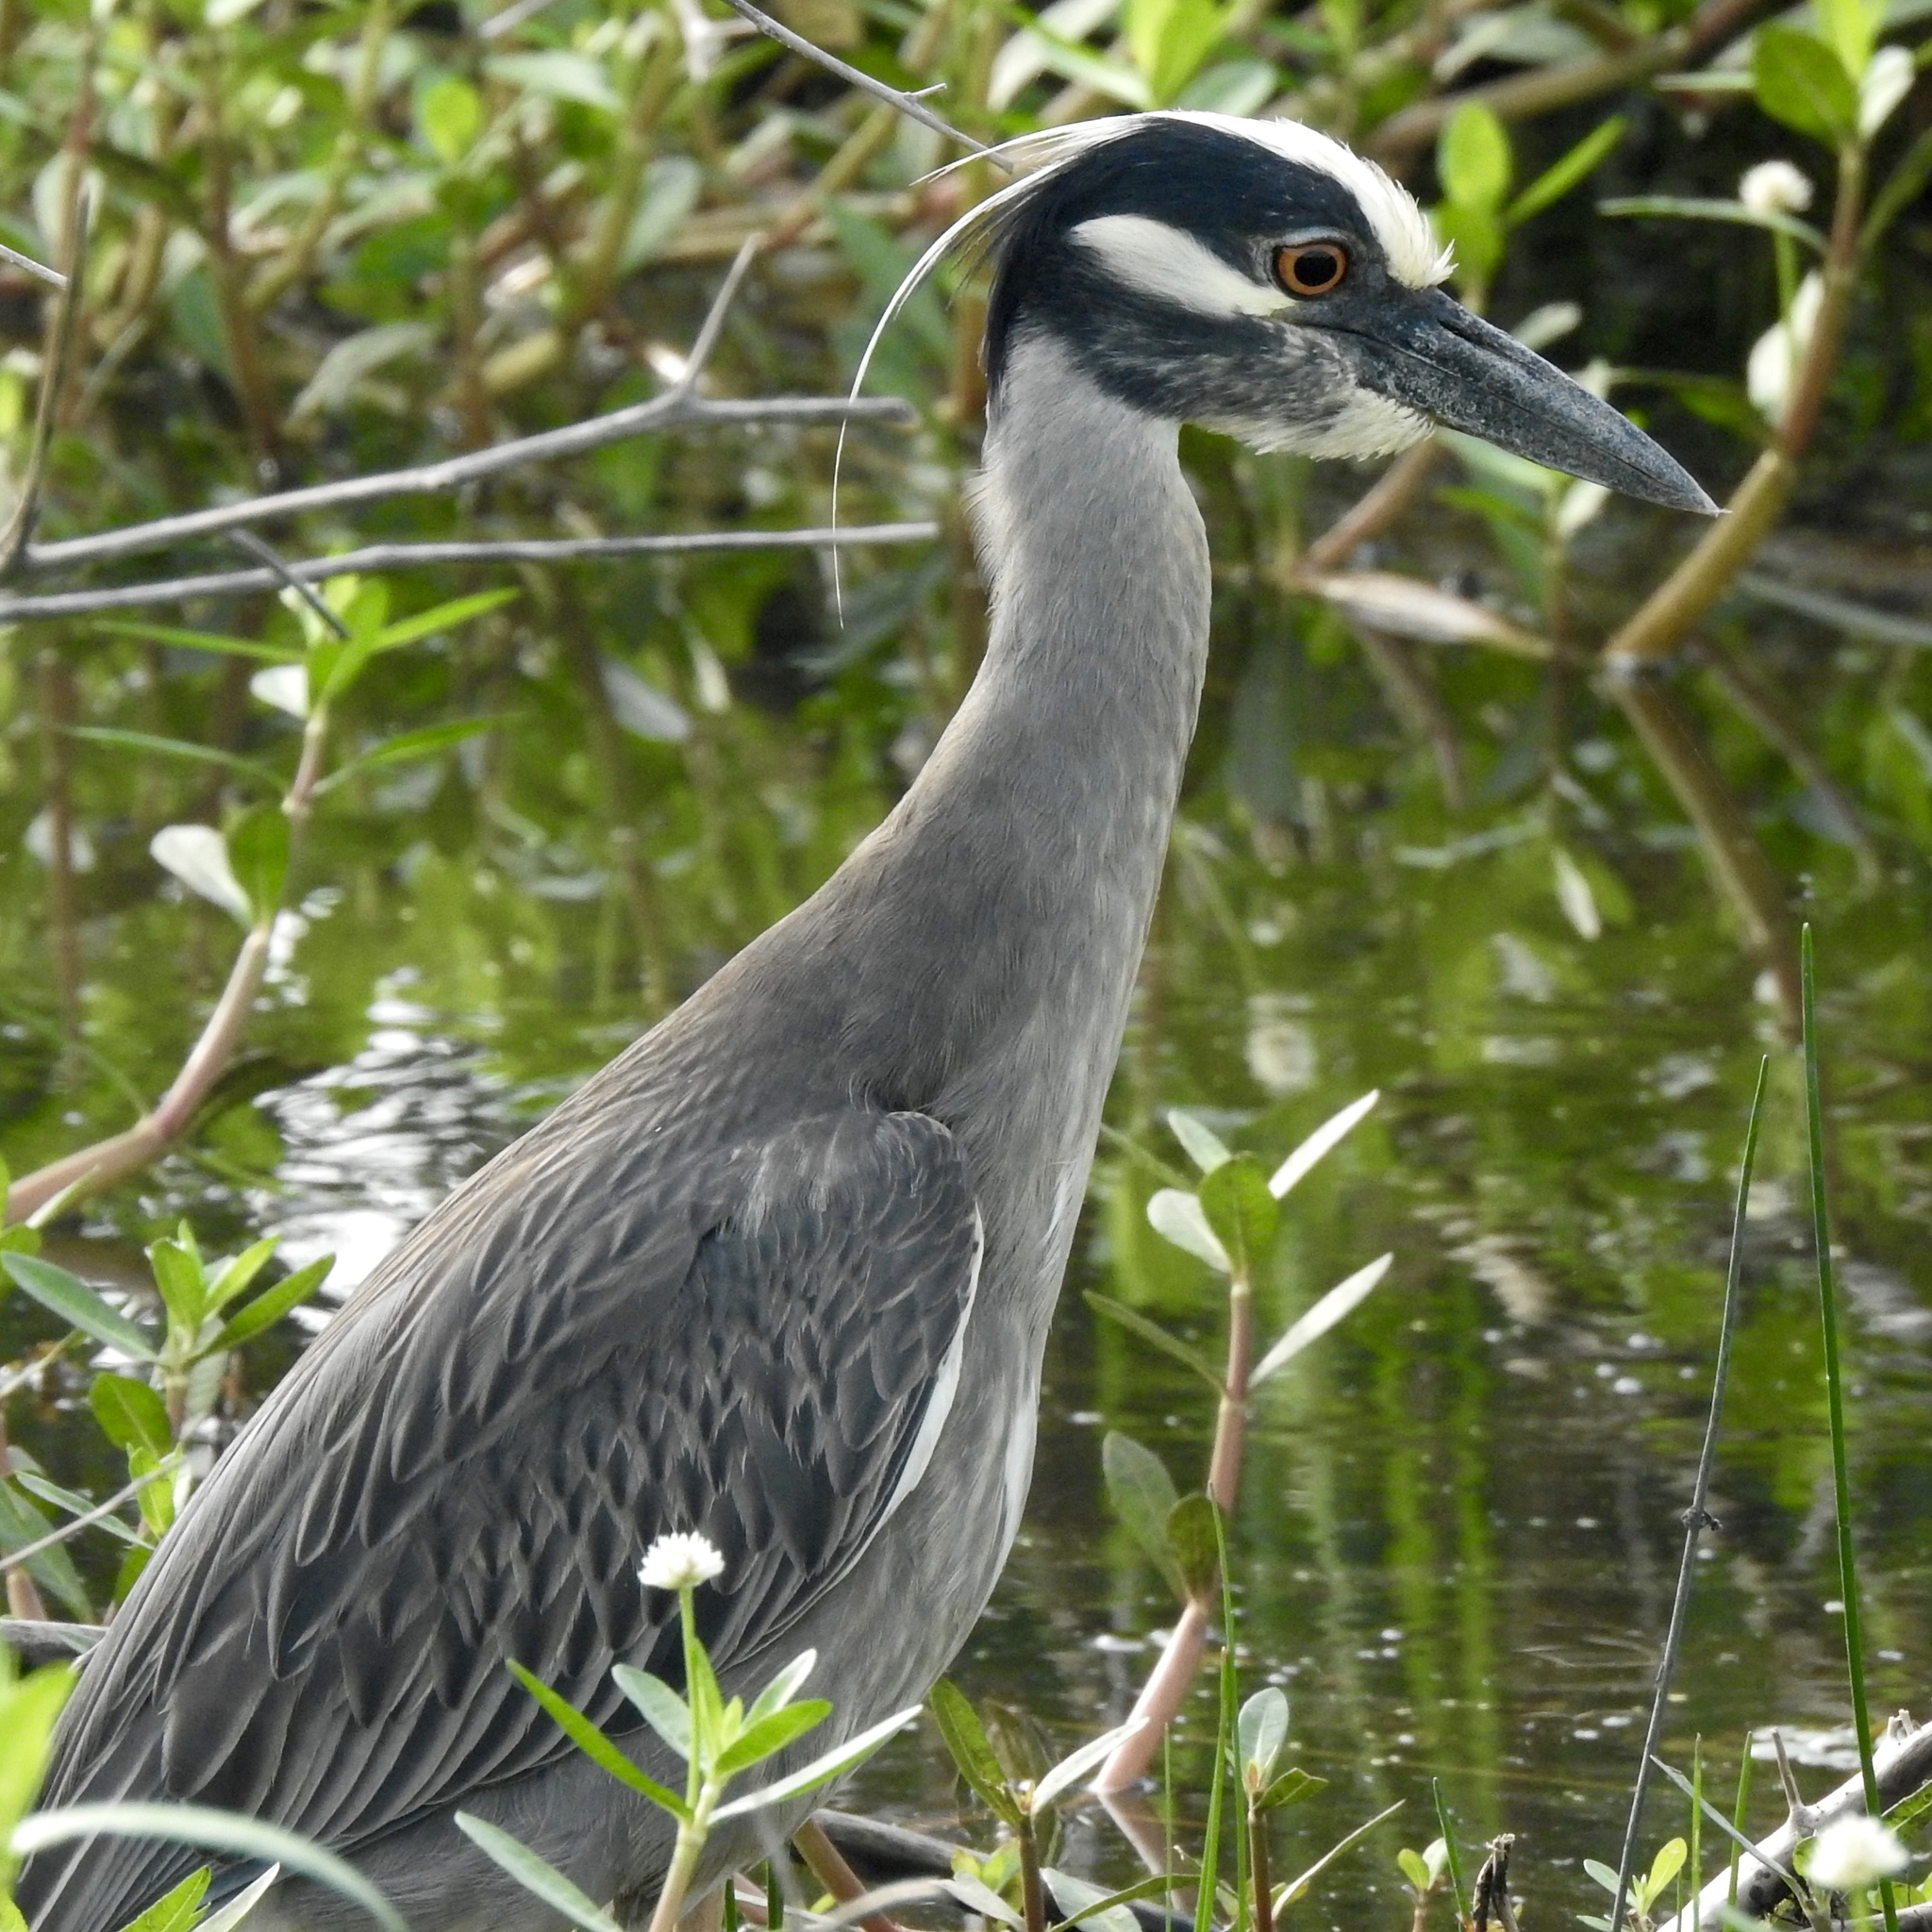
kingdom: Animalia
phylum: Chordata
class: Aves
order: Pelecaniformes
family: Ardeidae
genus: Nyctanassa
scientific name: Nyctanassa violacea
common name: Yellow-crowned night heron
